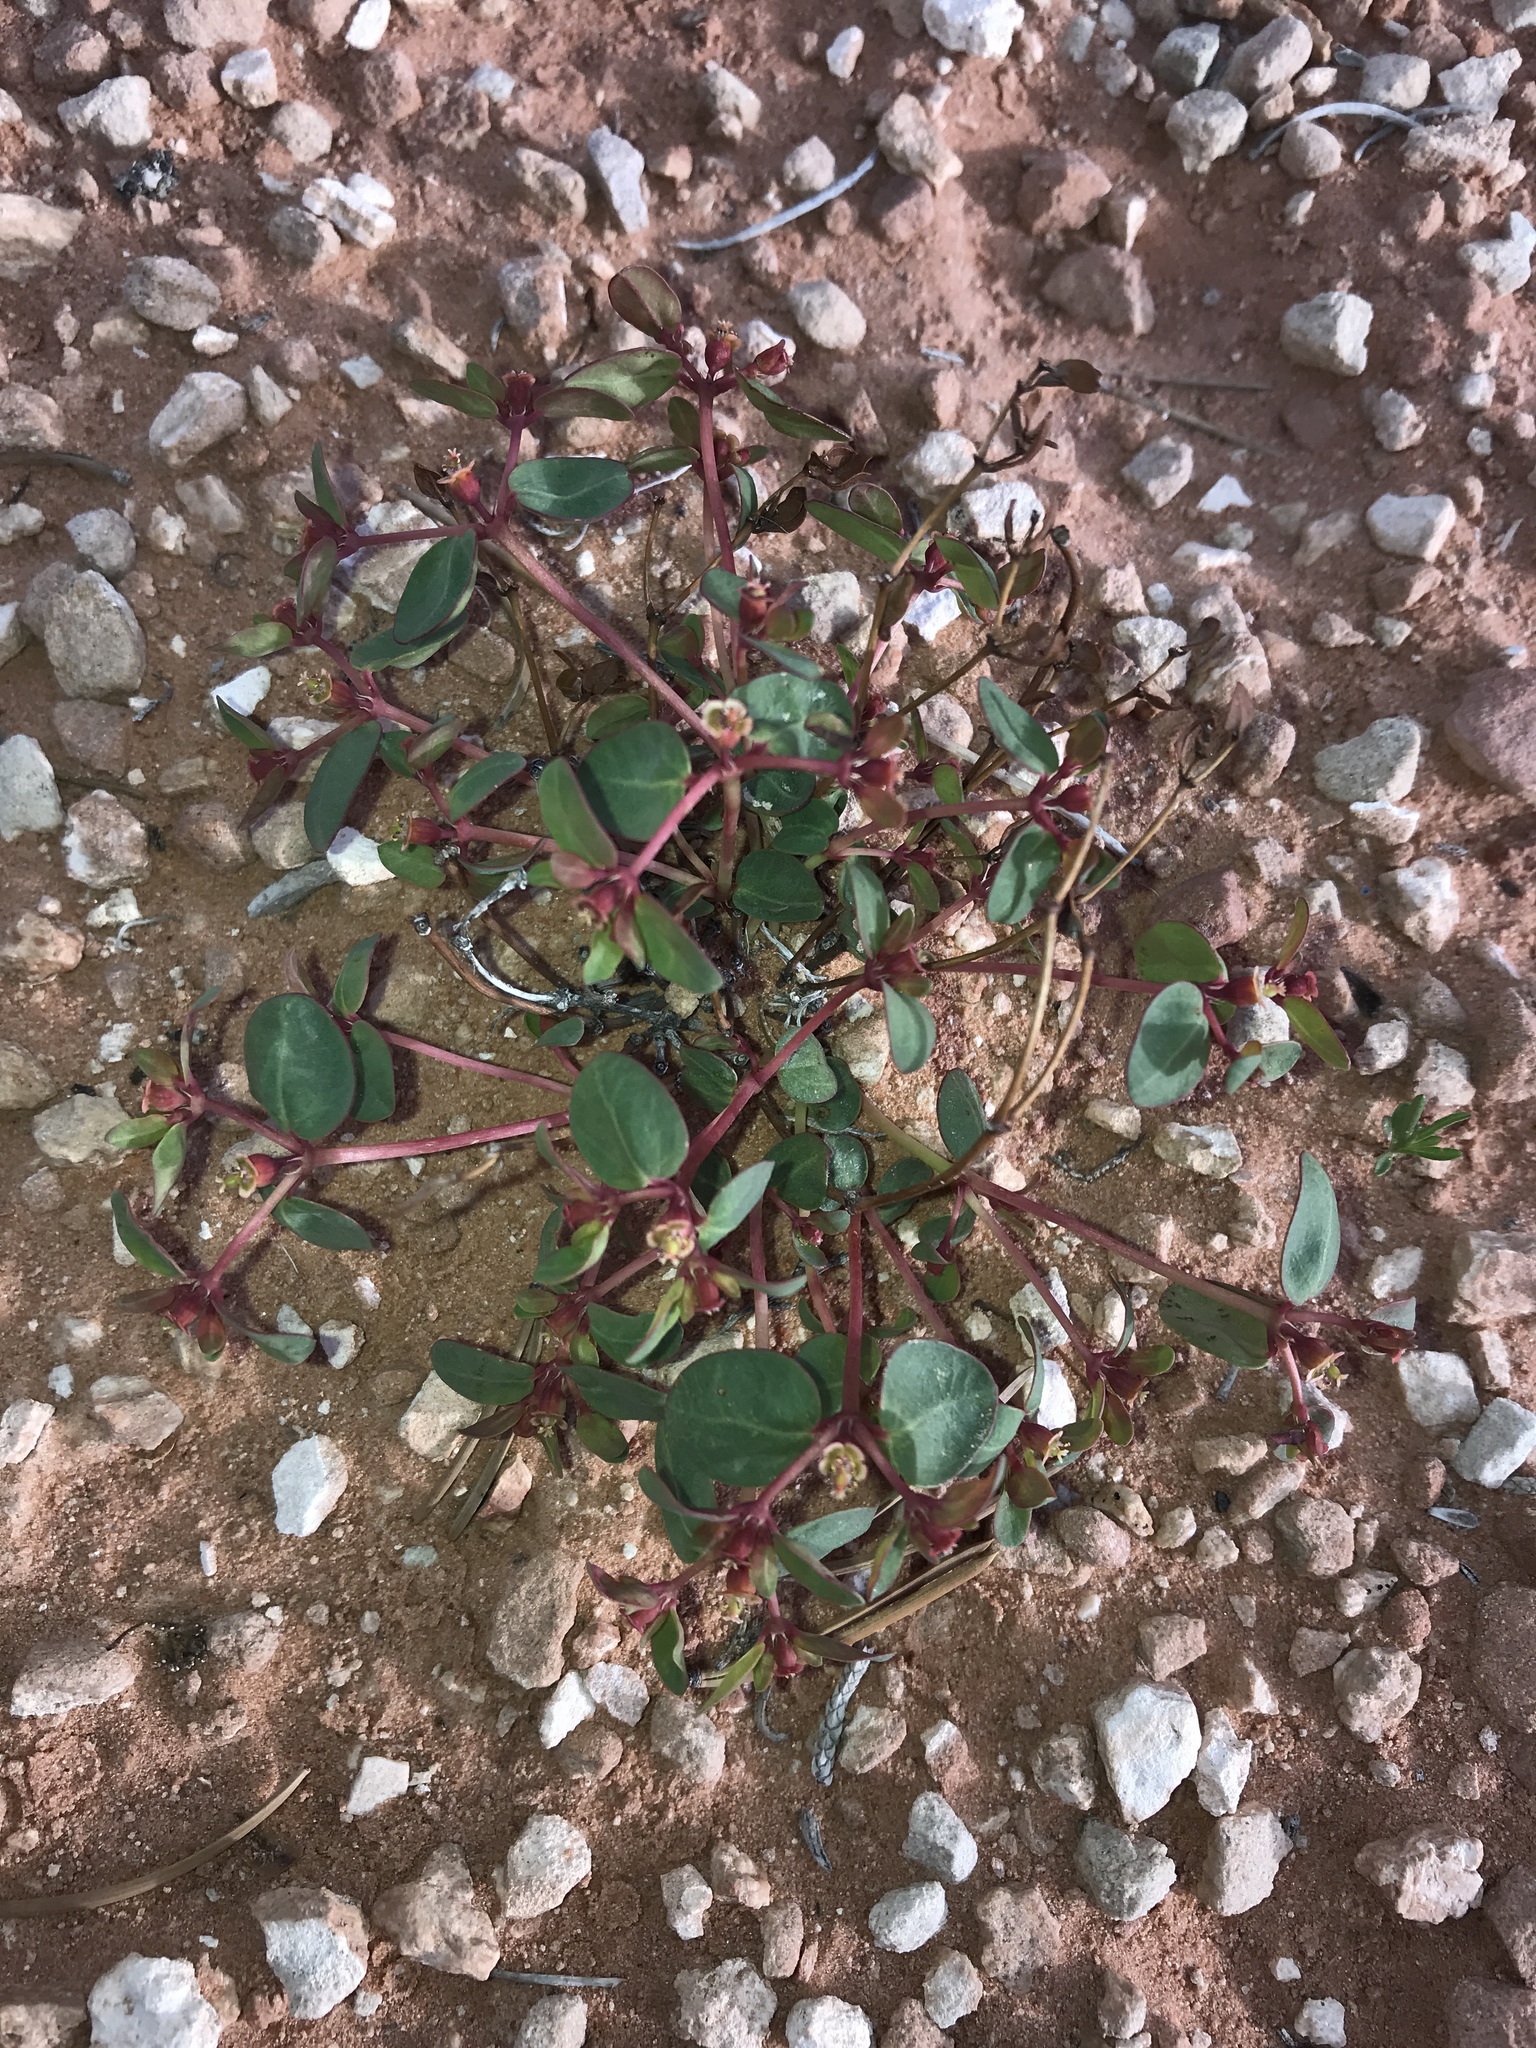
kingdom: Plantae
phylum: Tracheophyta
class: Magnoliopsida
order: Malpighiales
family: Euphorbiaceae
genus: Euphorbia
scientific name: Euphorbia fendleri
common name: Fendler's euphorbia
